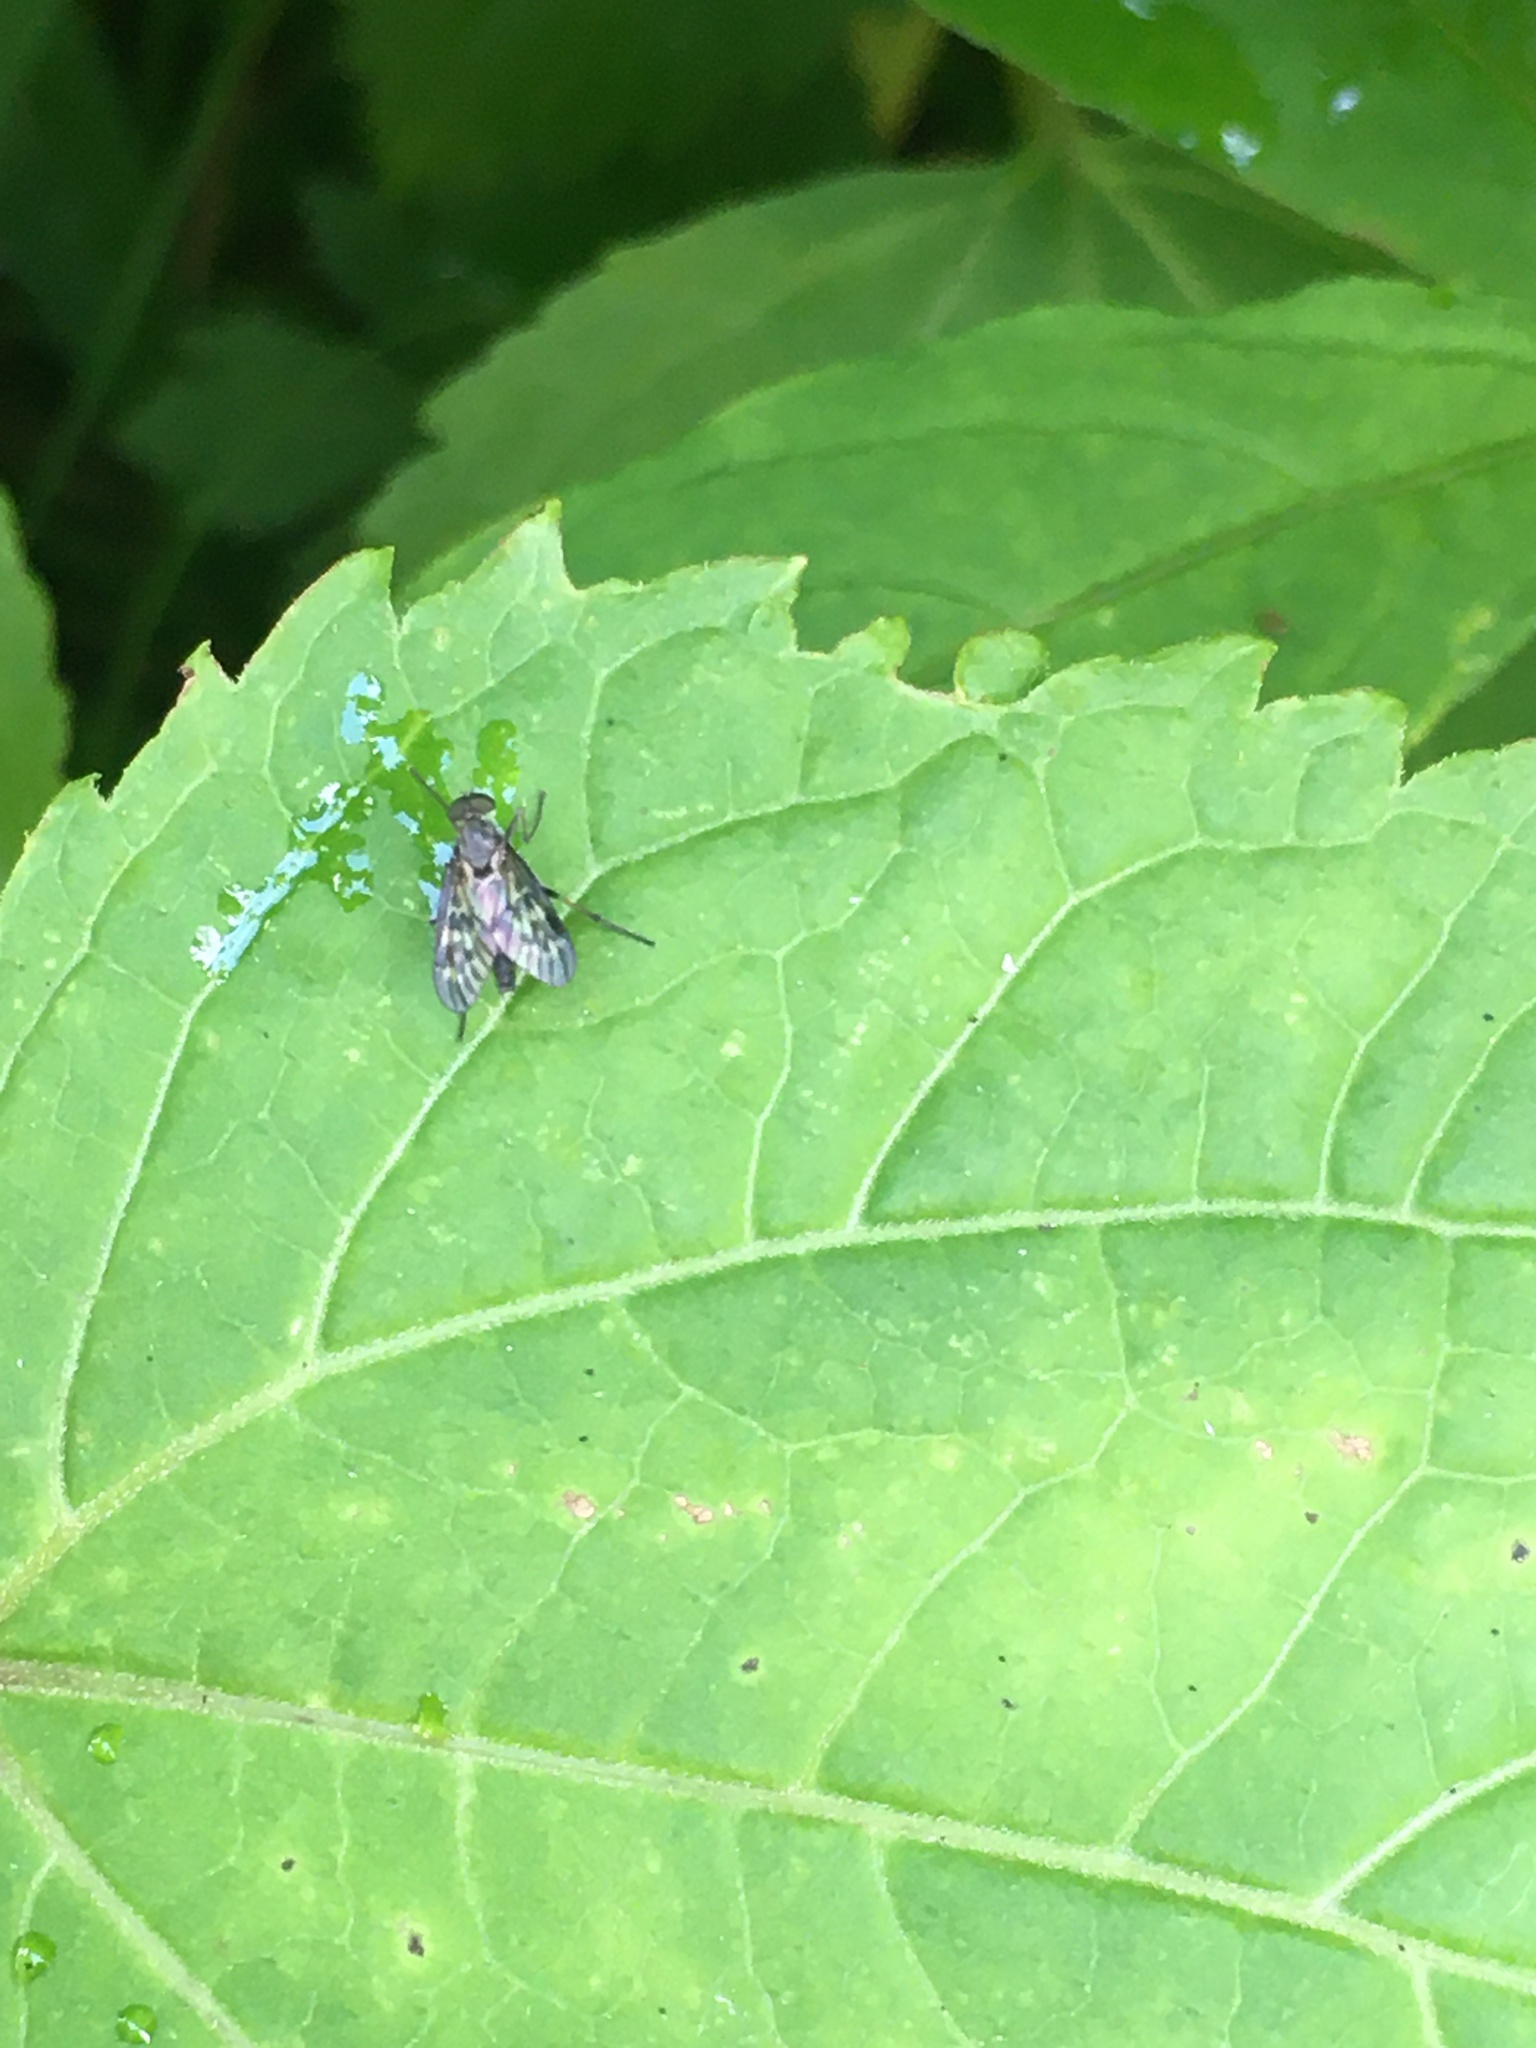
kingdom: Animalia
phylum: Arthropoda
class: Insecta
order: Diptera
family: Rhagionidae
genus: Rhagio
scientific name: Rhagio punctipennis
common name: Lesser variegated snipe fly
